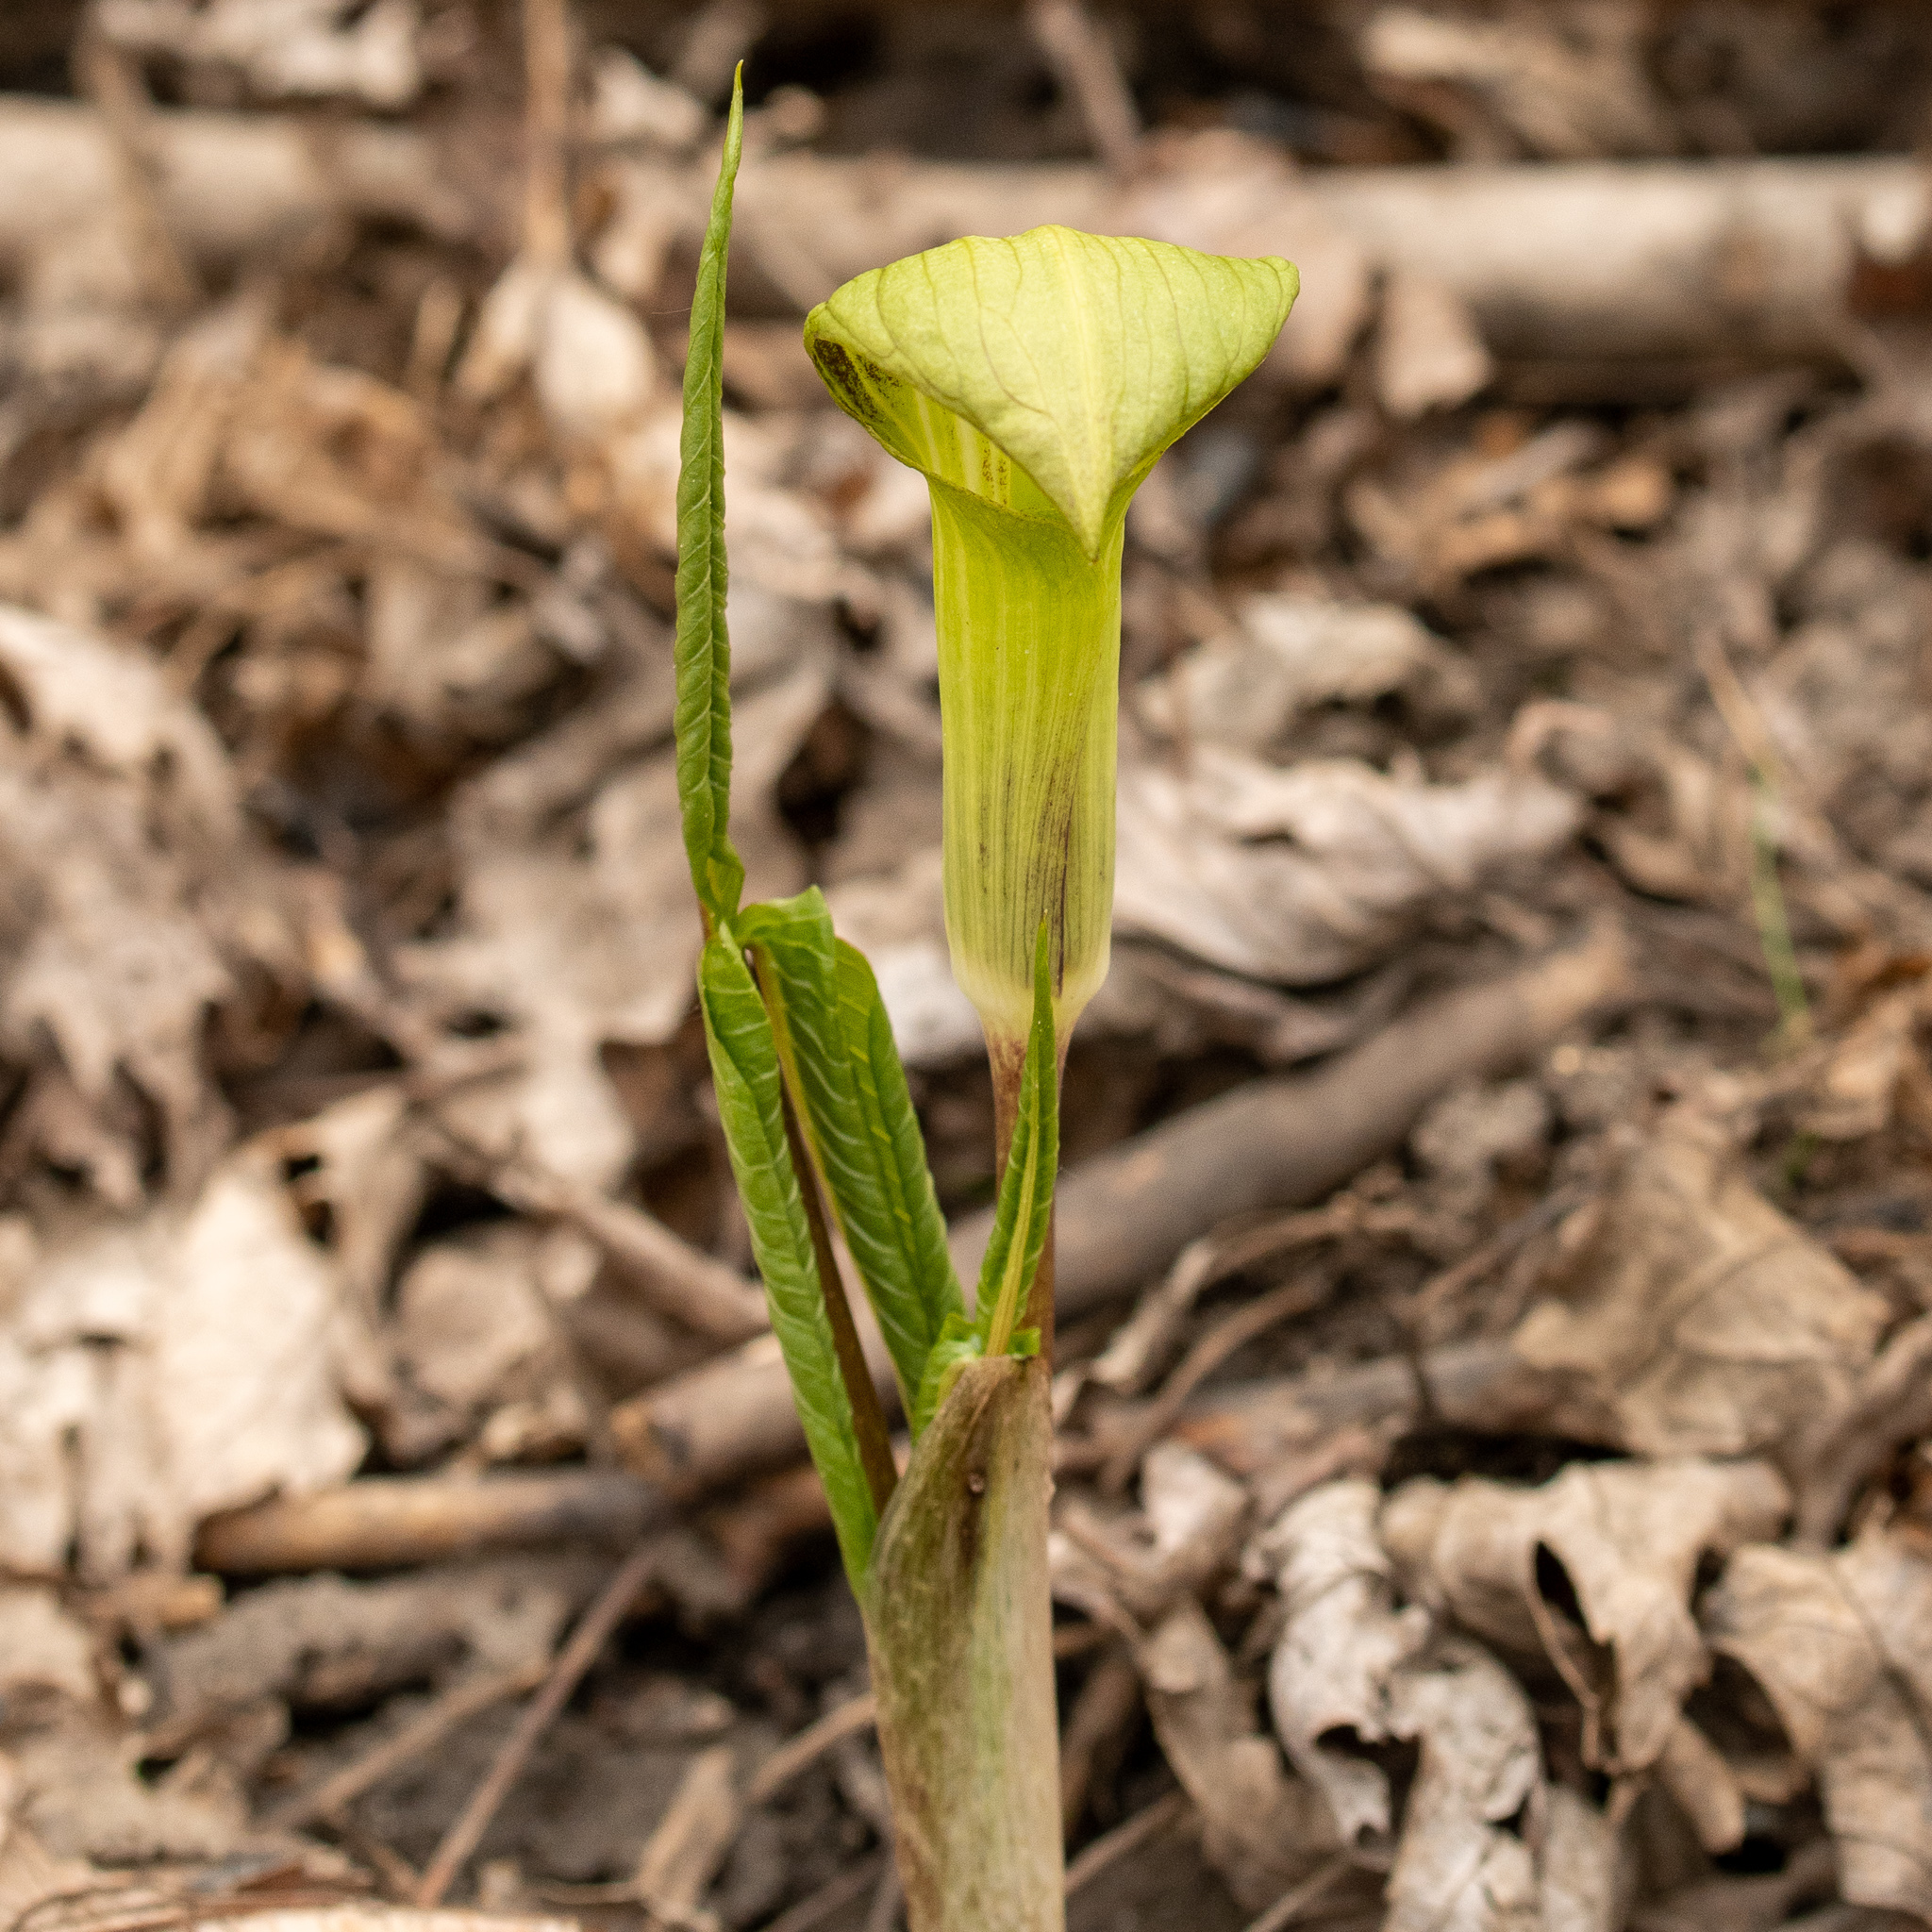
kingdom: Plantae
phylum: Tracheophyta
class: Liliopsida
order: Alismatales
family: Araceae
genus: Arisaema
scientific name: Arisaema triphyllum
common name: Jack-in-the-pulpit
